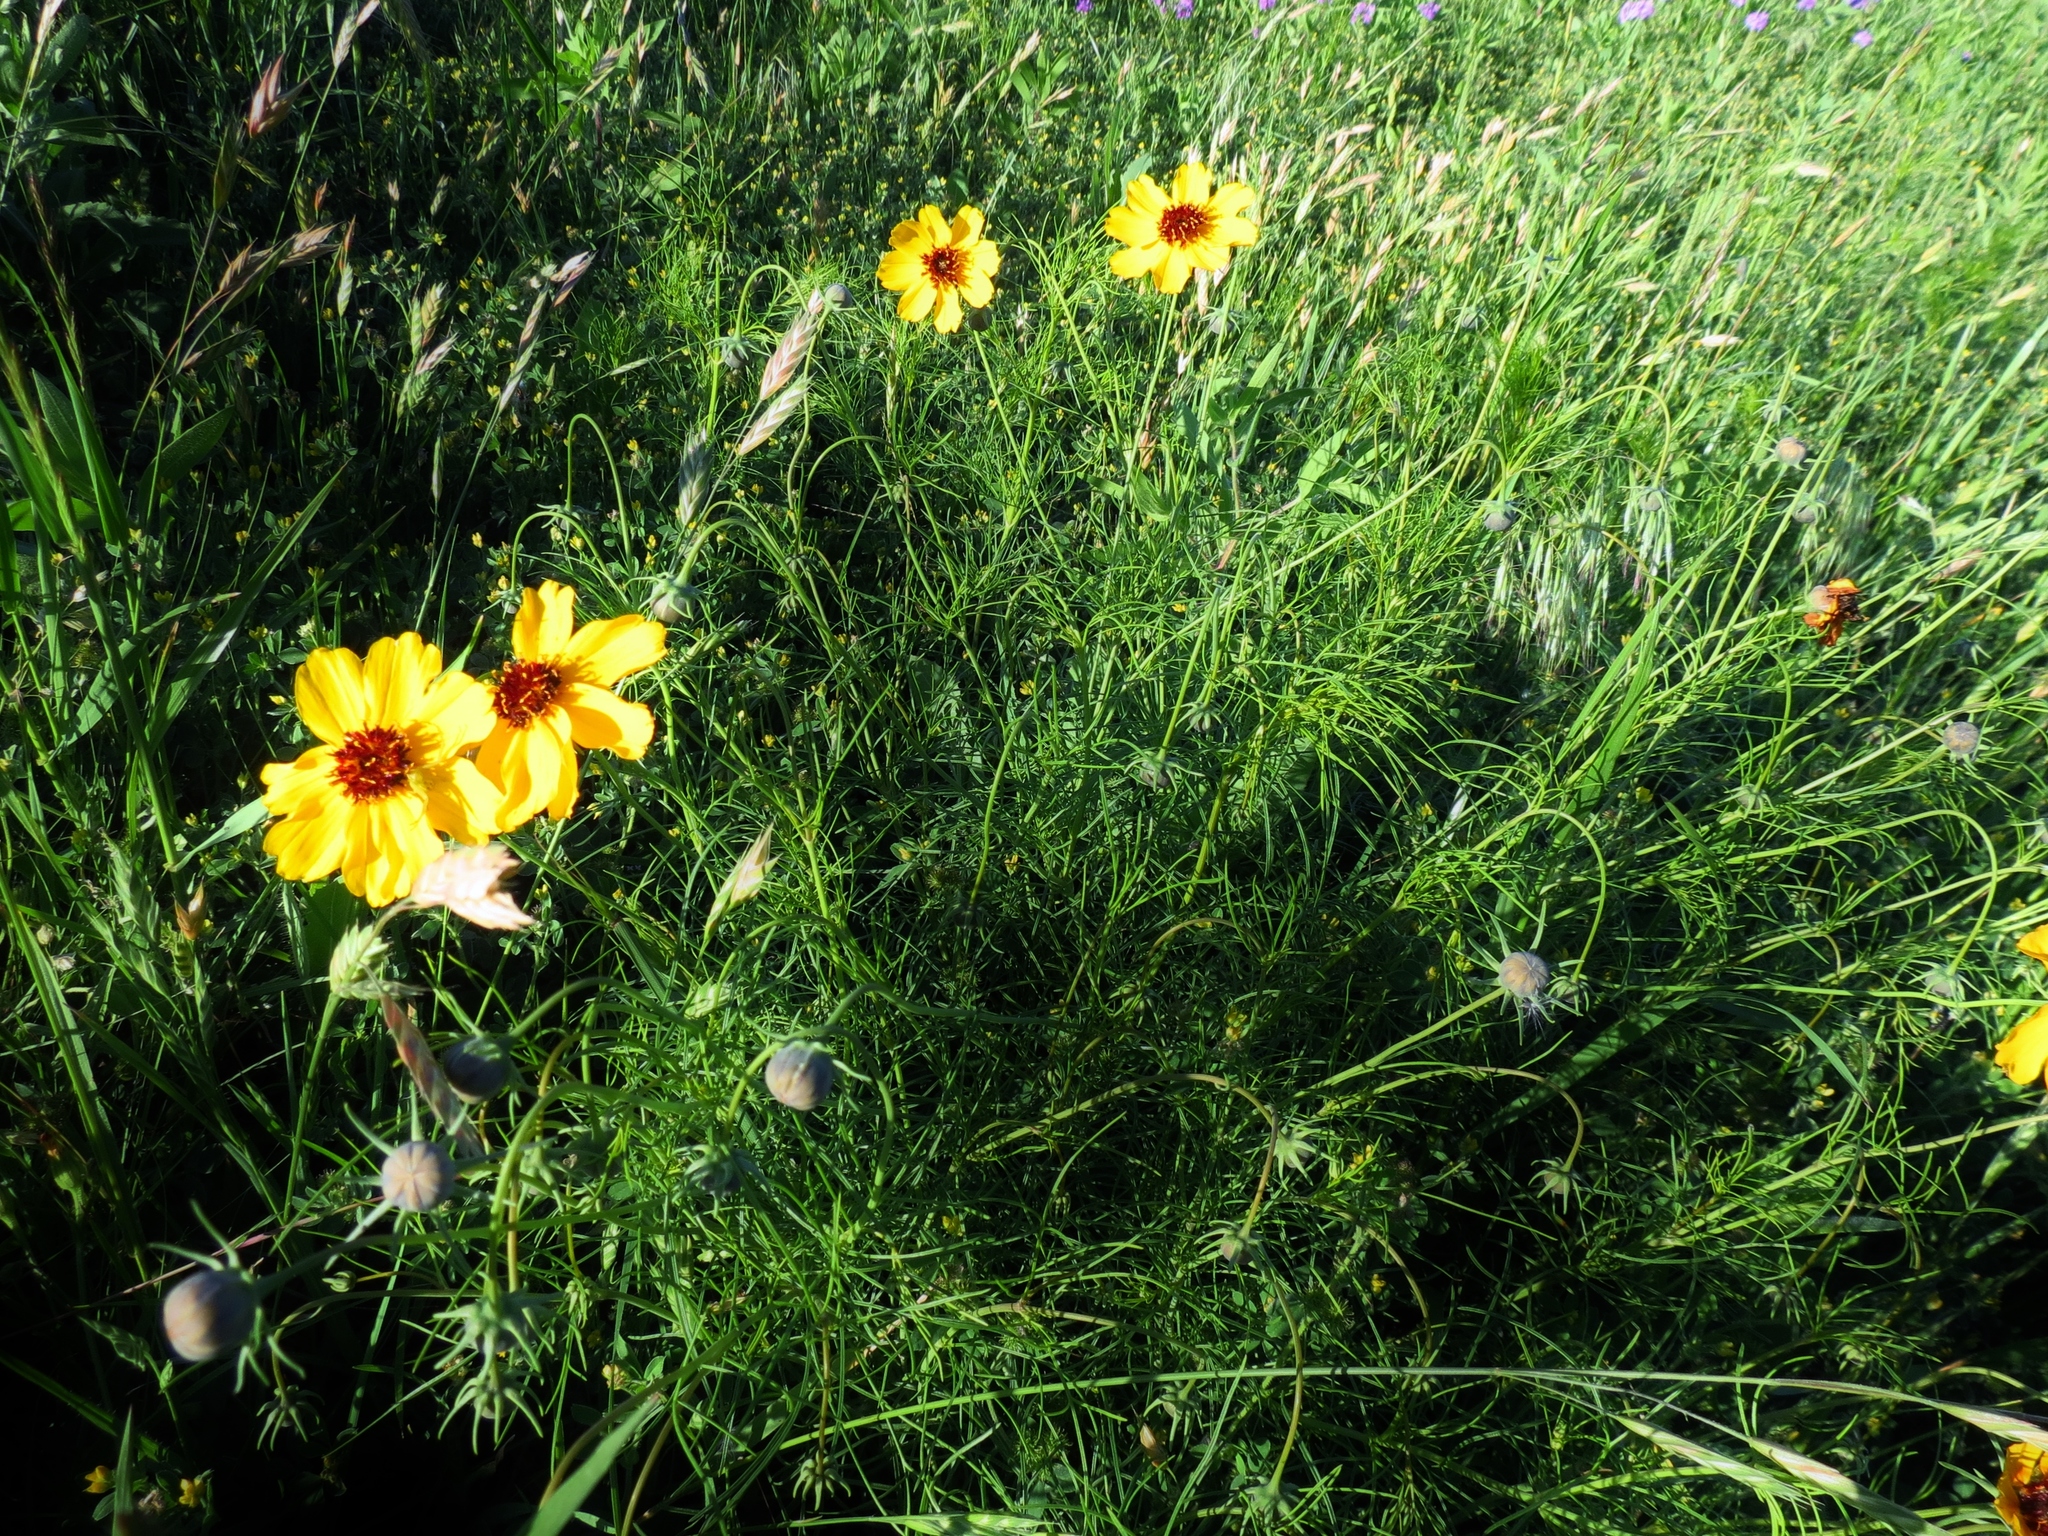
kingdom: Plantae
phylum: Tracheophyta
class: Magnoliopsida
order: Asterales
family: Asteraceae
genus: Thelesperma
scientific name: Thelesperma filifolium
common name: Stiff greenthread
